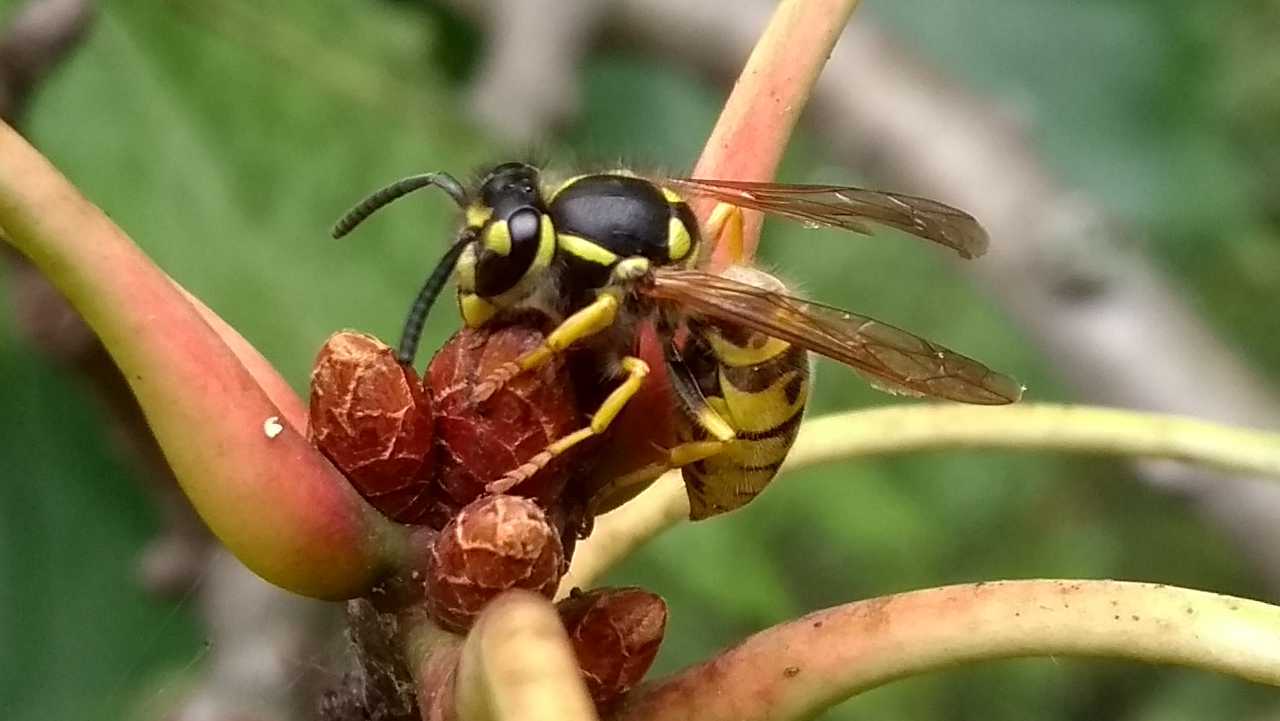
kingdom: Animalia
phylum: Arthropoda
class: Insecta
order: Hymenoptera
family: Vespidae
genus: Vespula
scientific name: Vespula germanica
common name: German wasp
